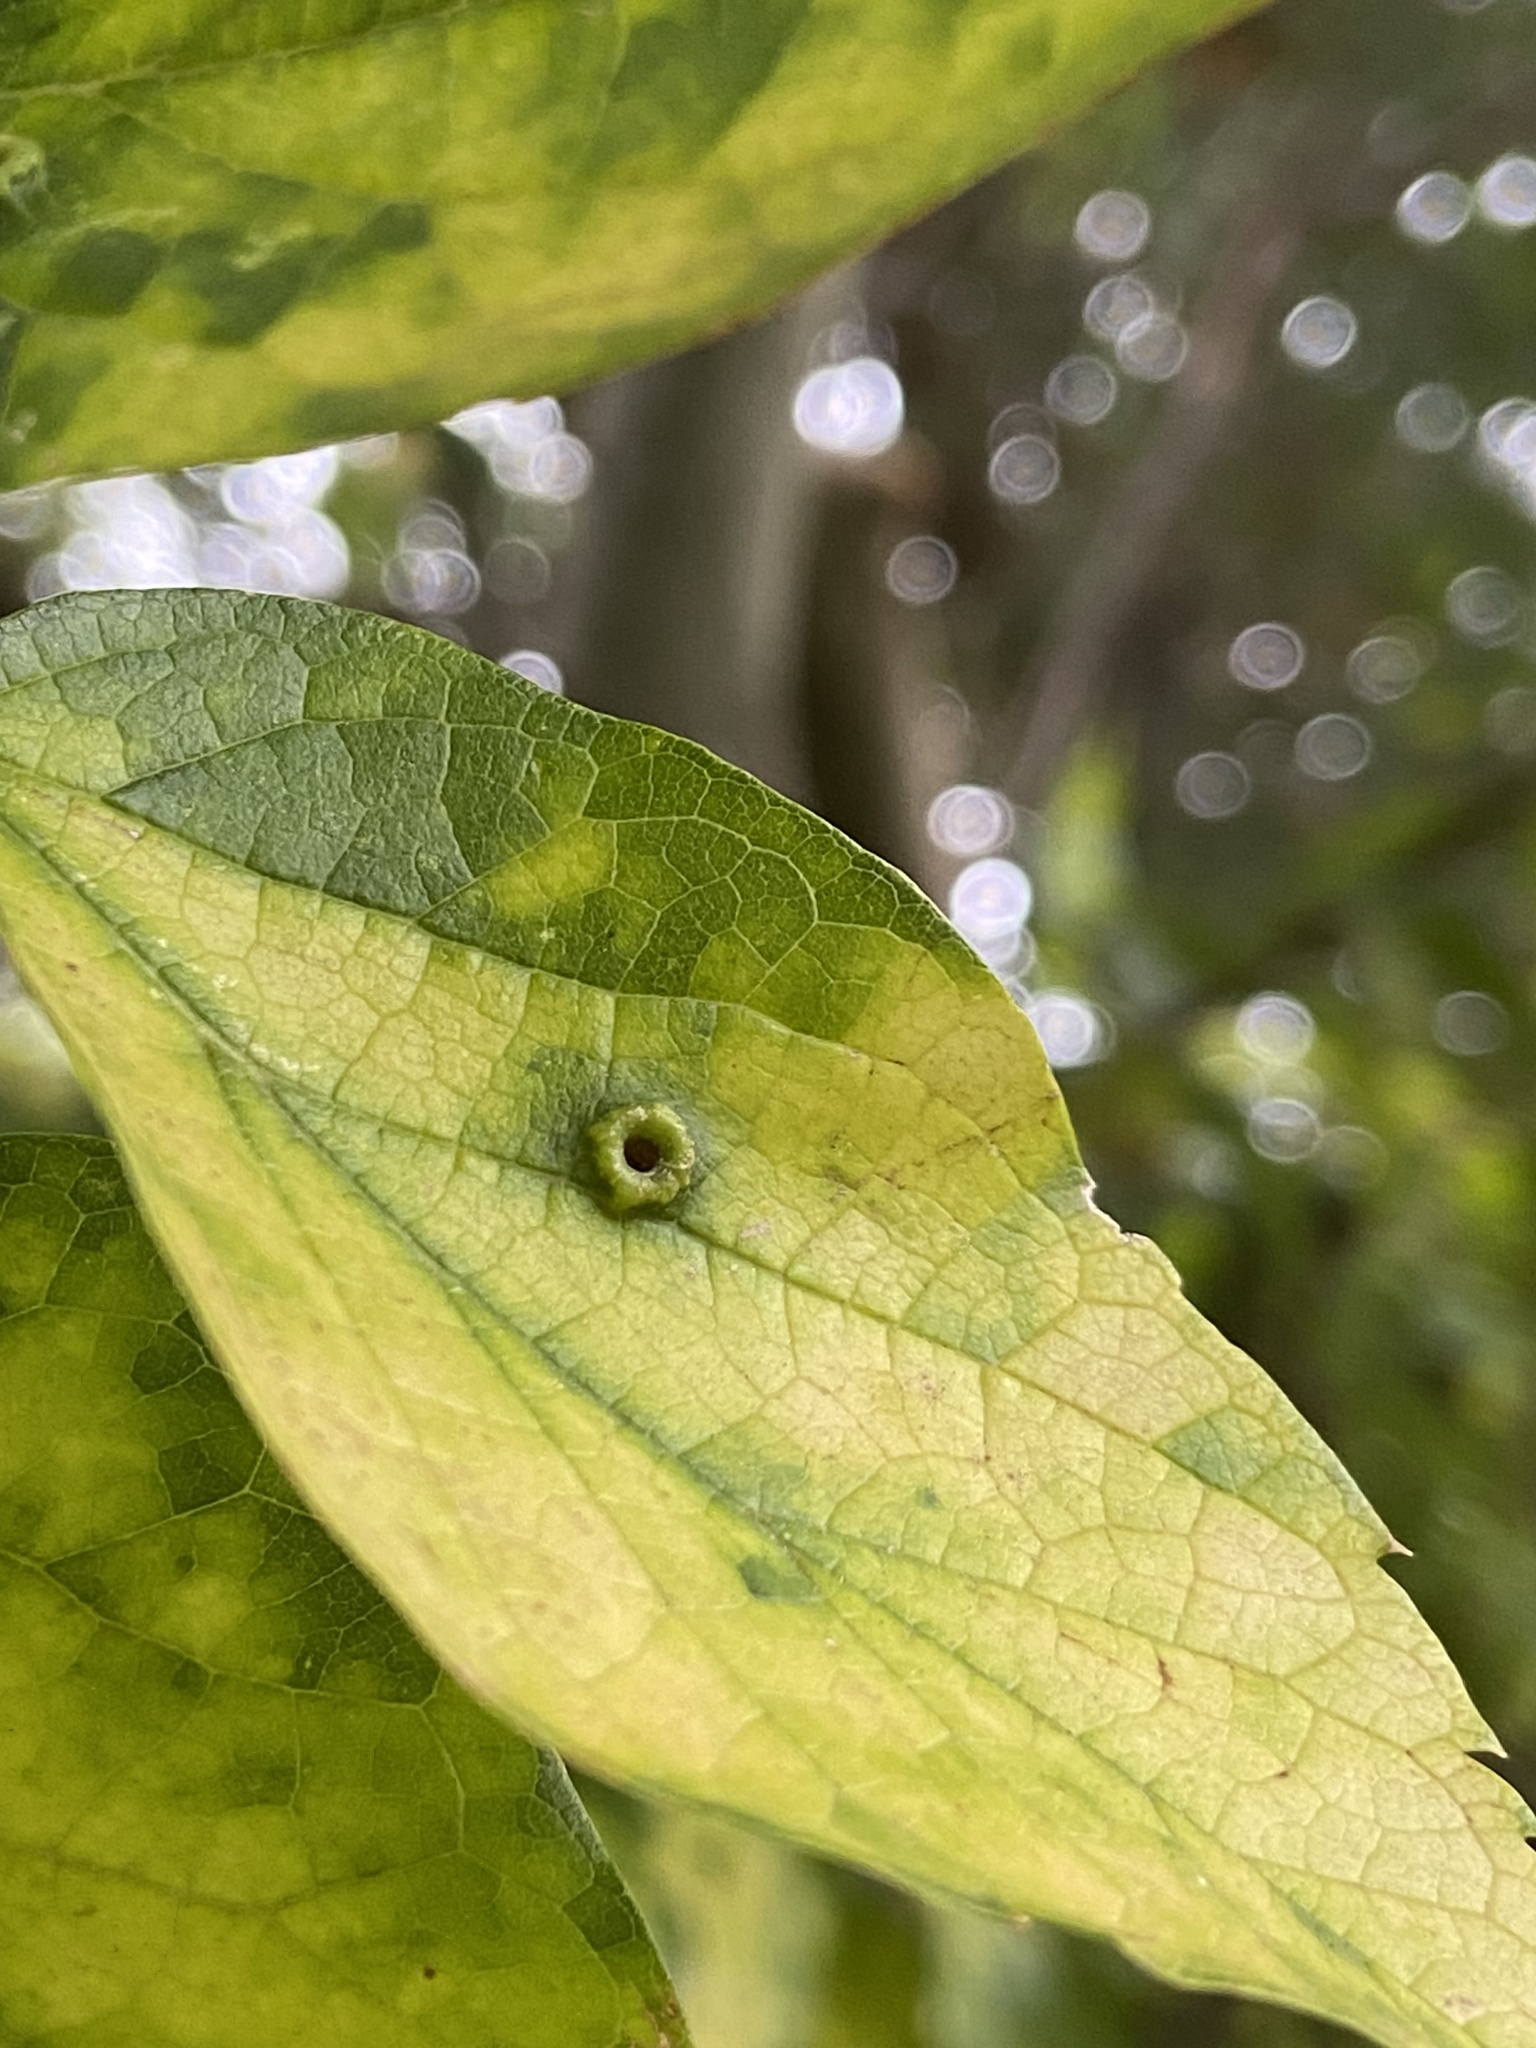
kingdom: Animalia
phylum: Arthropoda
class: Insecta
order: Hemiptera
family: Aphalaridae
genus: Pachypsylla
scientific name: Pachypsylla celtidismamma
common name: Hackberry nipplegall psyllid
